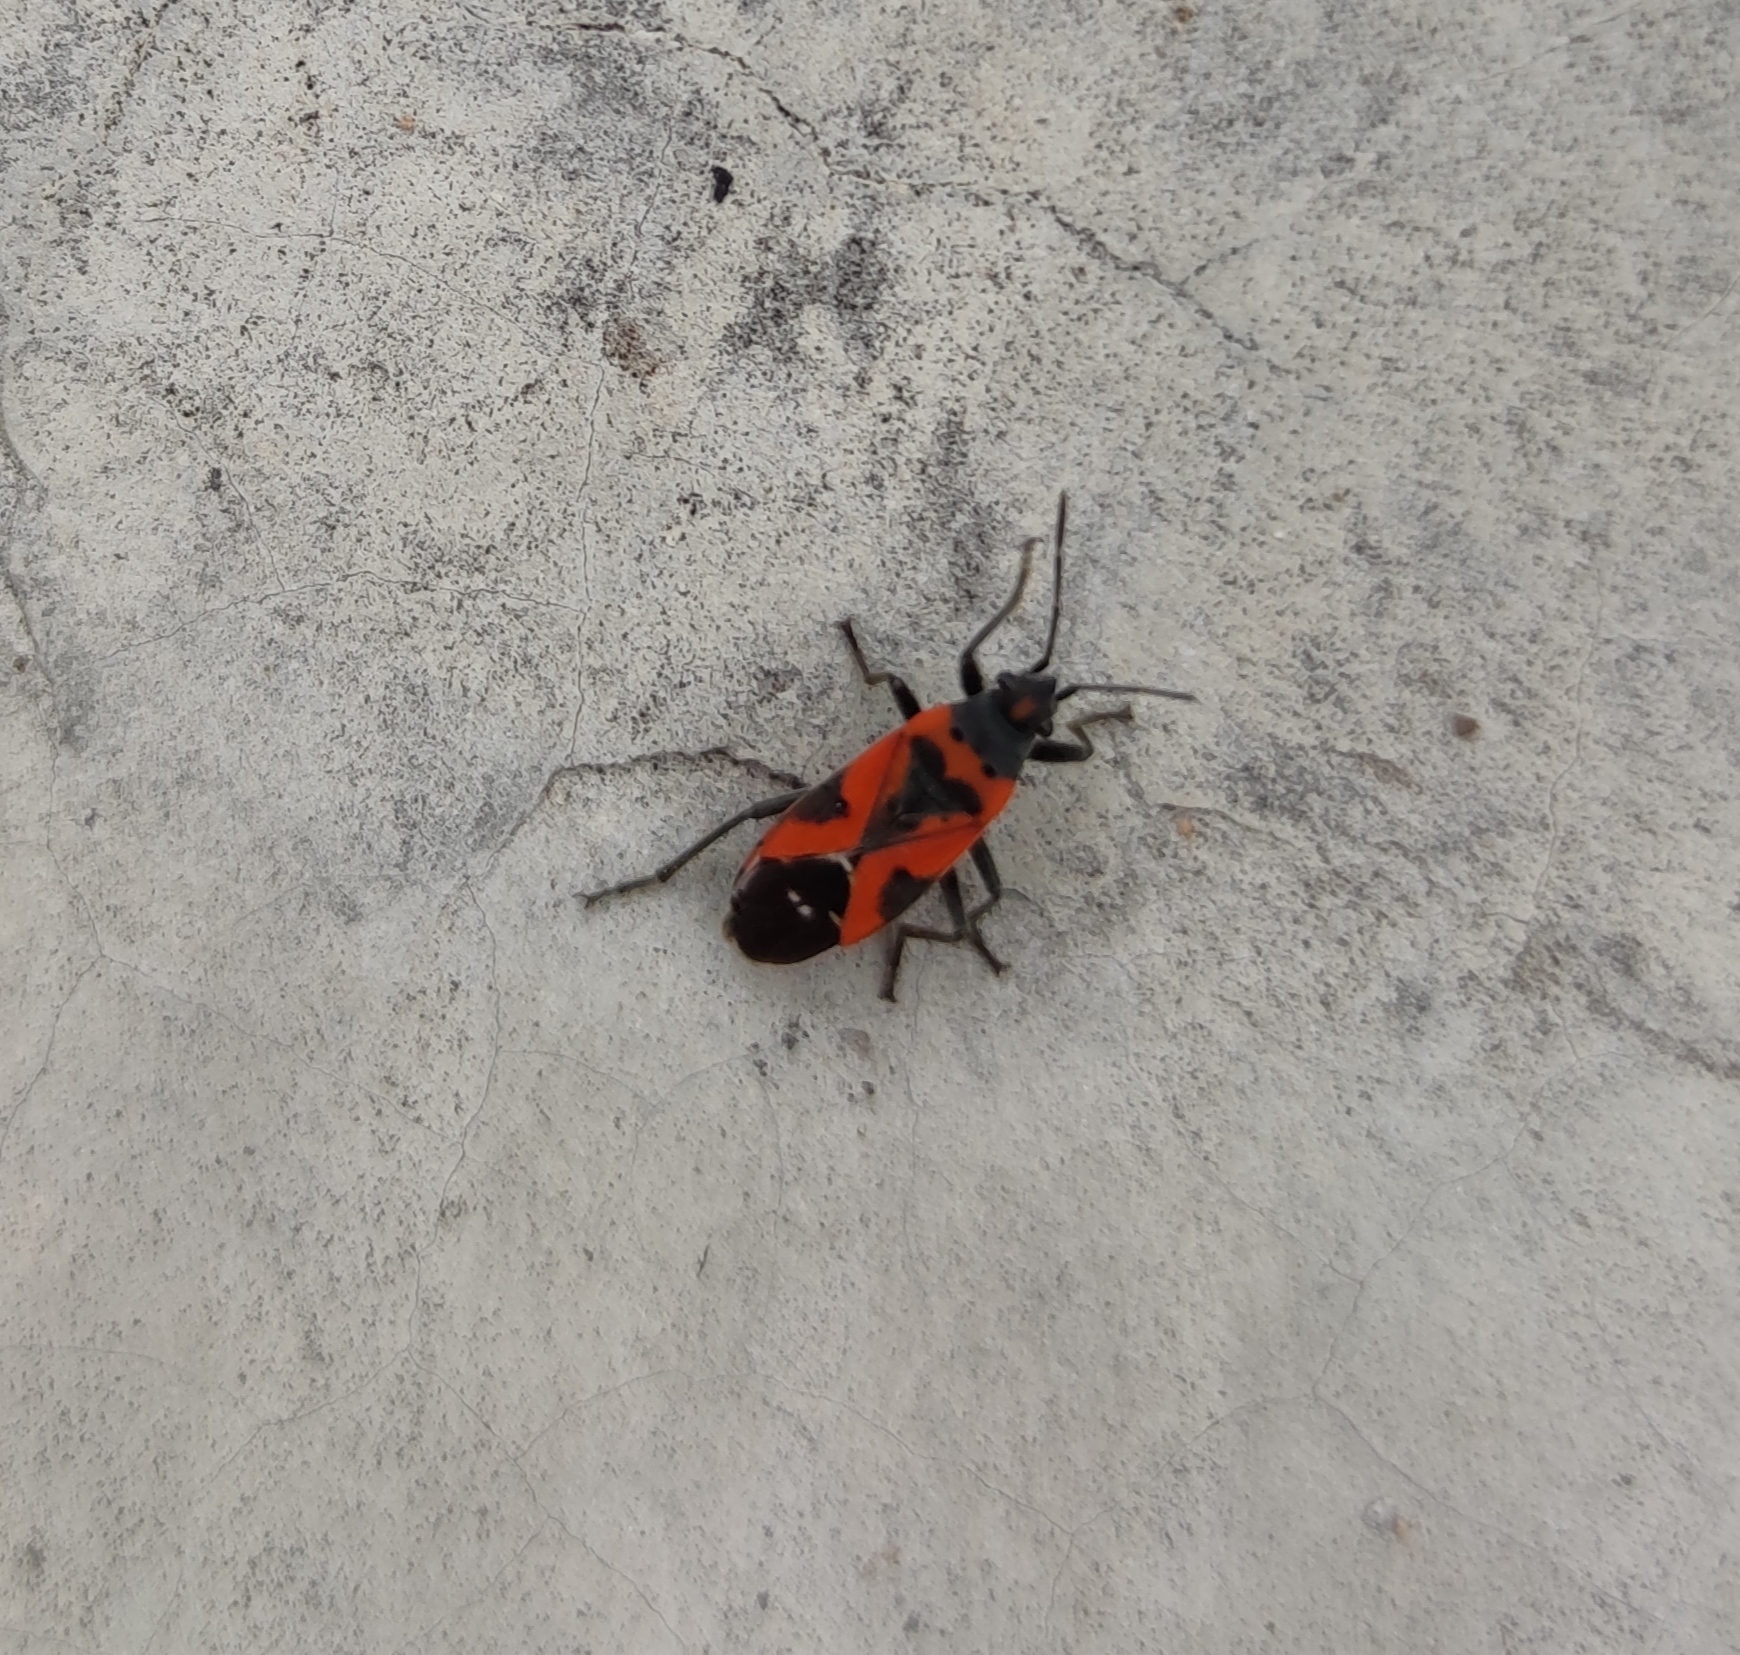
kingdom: Animalia
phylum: Arthropoda
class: Insecta
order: Hemiptera
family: Lygaeidae
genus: Lygaeus
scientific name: Lygaeus reclivatus
